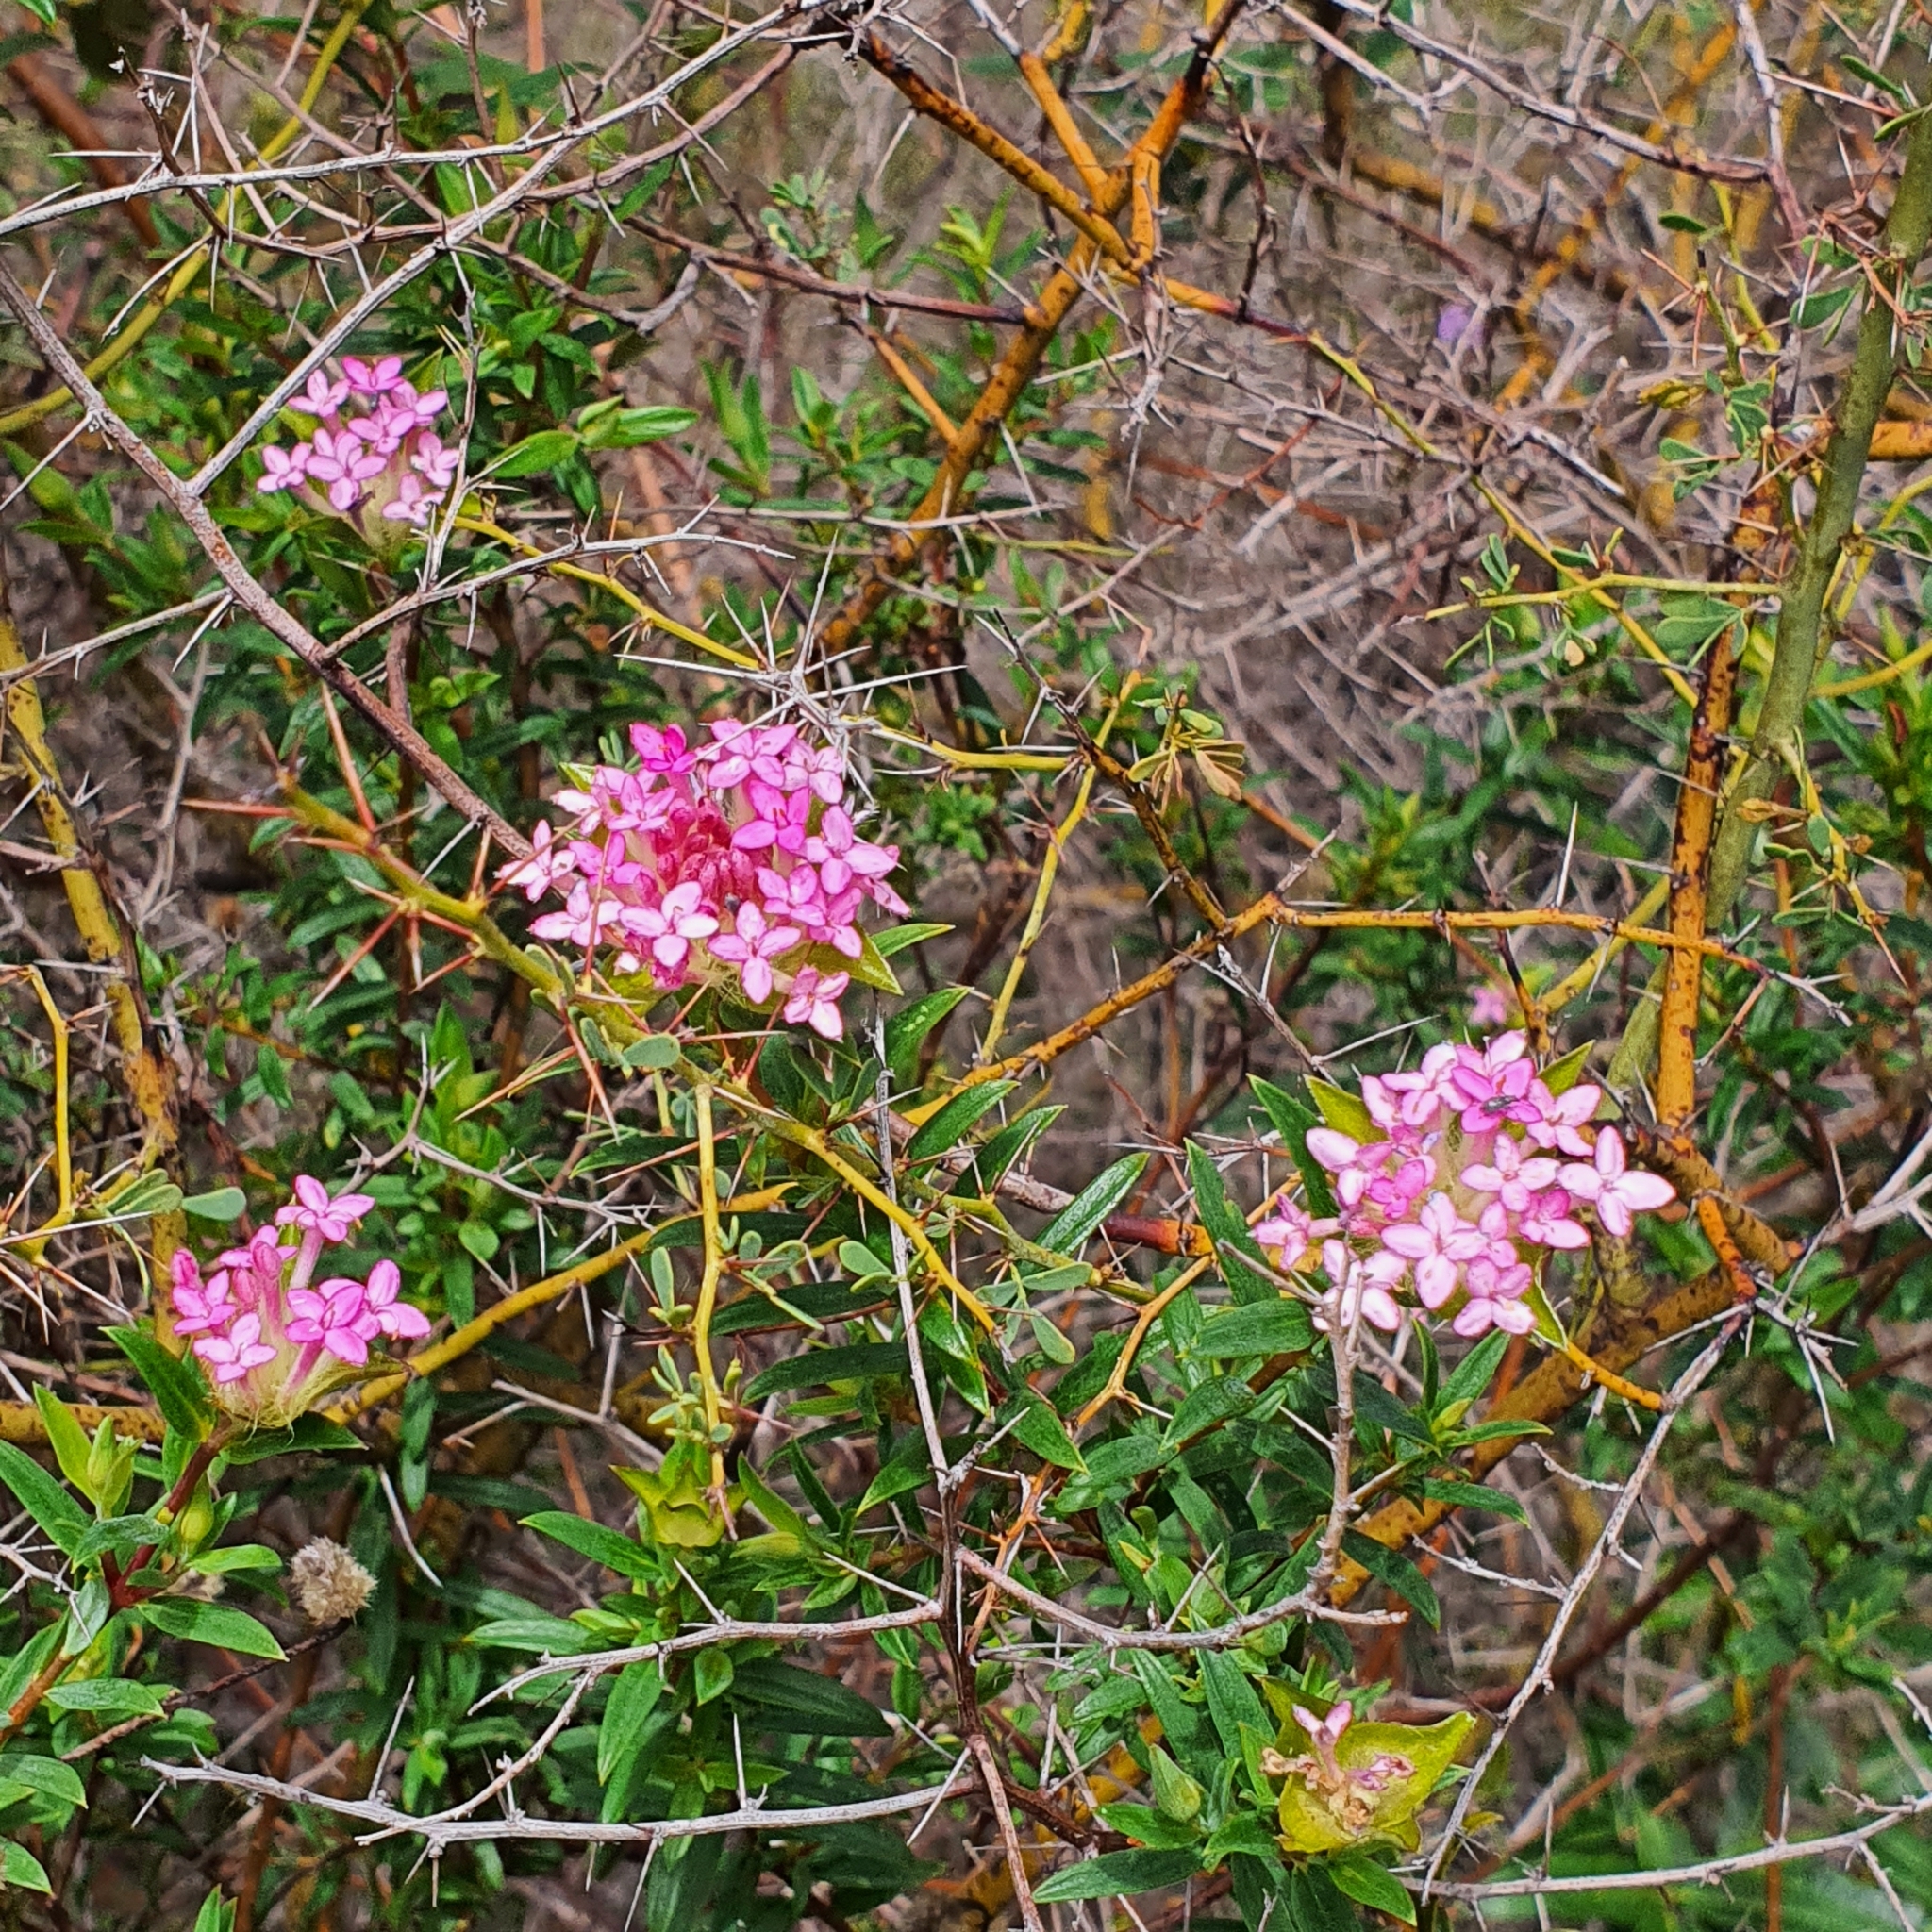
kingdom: Plantae
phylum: Tracheophyta
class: Magnoliopsida
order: Malvales
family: Thymelaeaceae
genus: Pimelea
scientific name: Pimelea rosea
